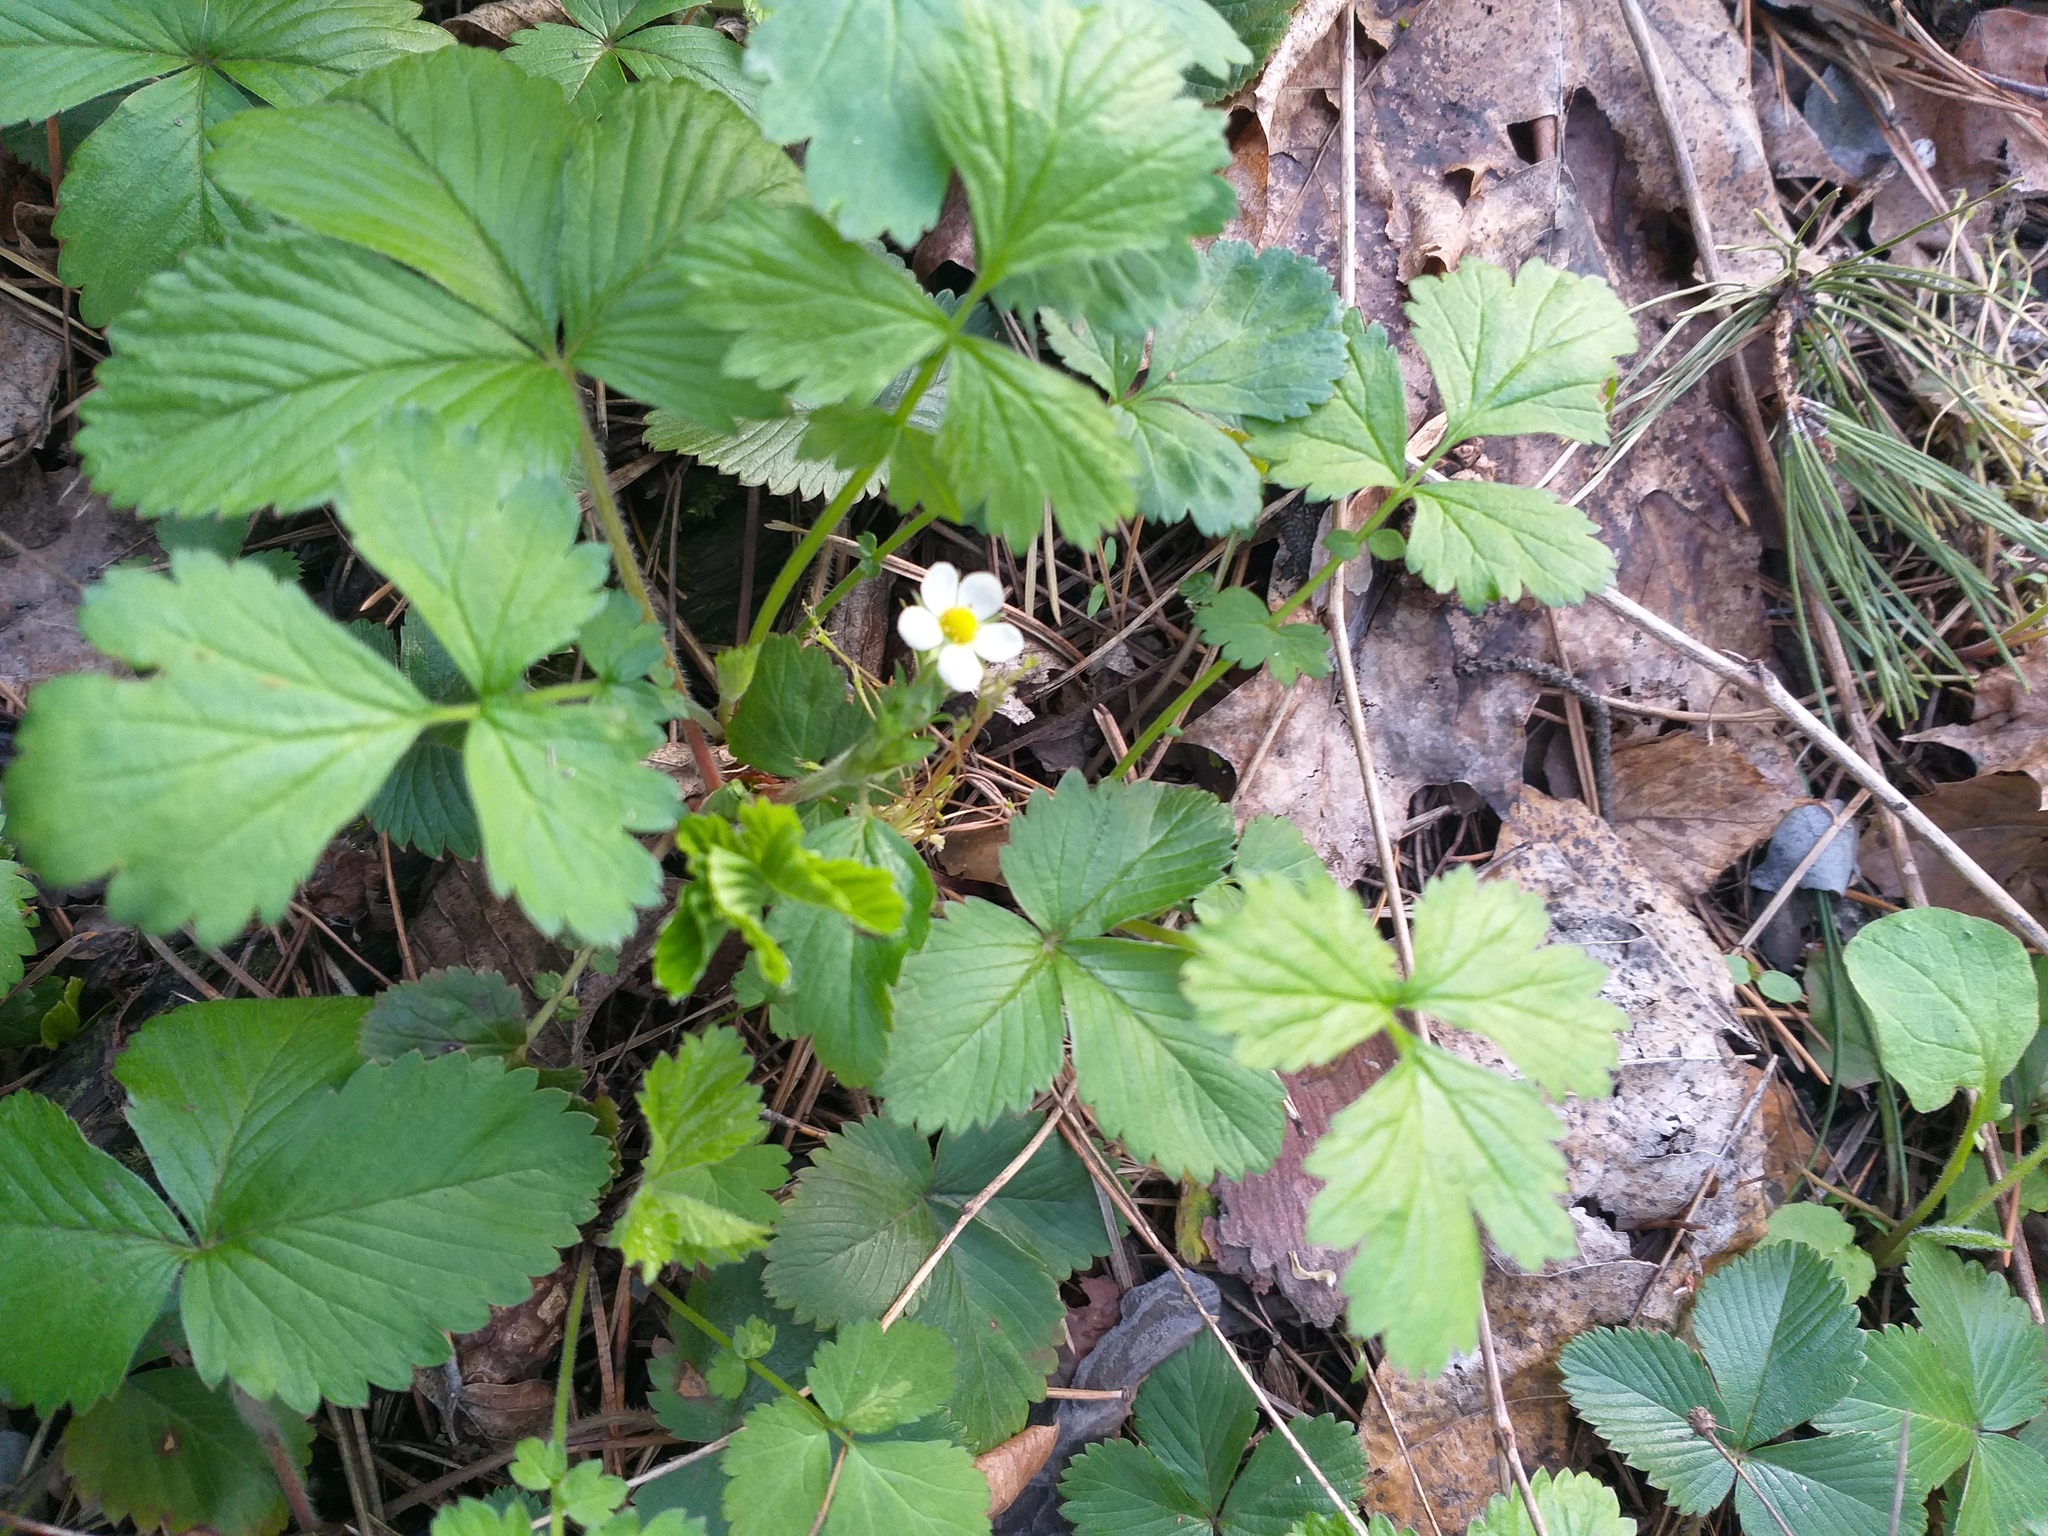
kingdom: Plantae
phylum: Tracheophyta
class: Magnoliopsida
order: Rosales
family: Rosaceae
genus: Fragaria
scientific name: Fragaria vesca
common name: Wild strawberry
